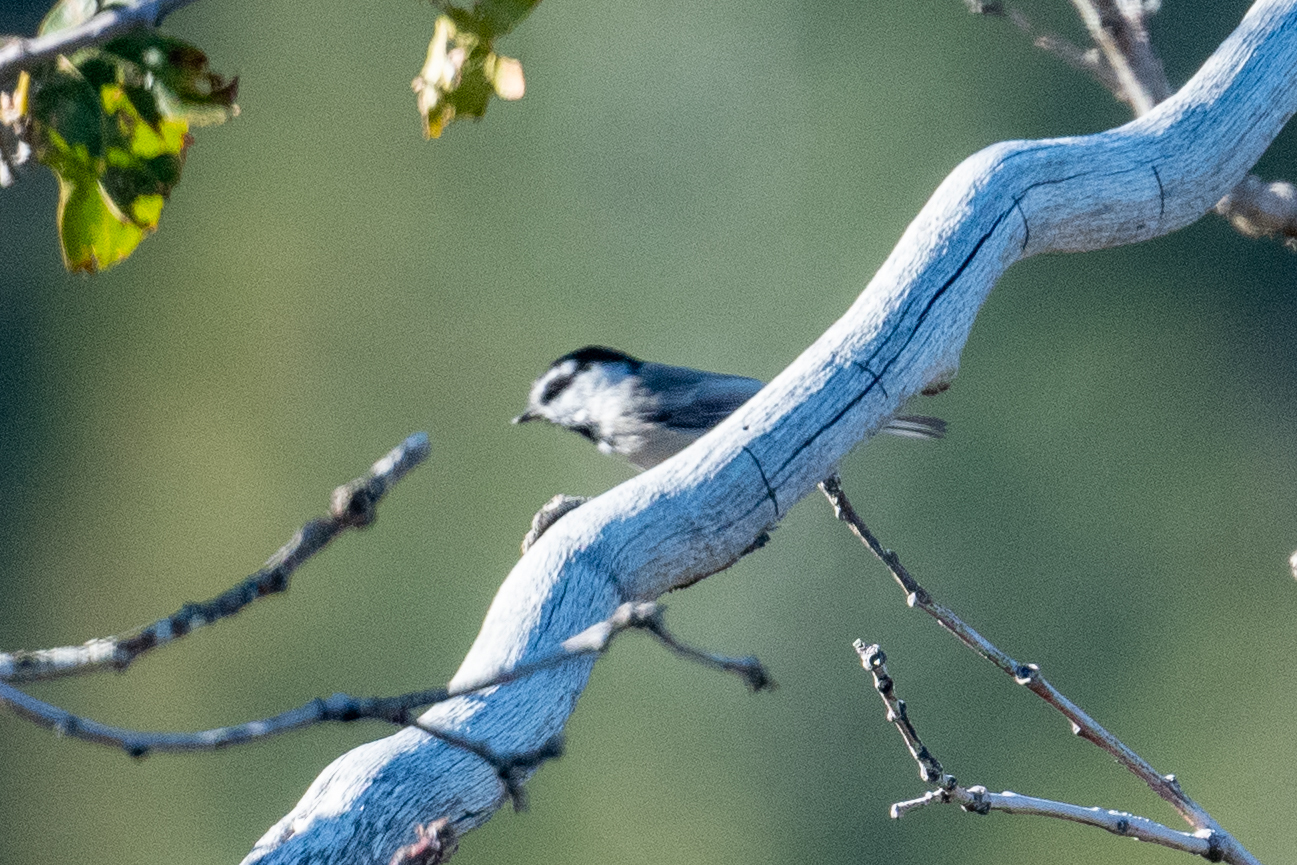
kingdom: Animalia
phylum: Chordata
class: Aves
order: Passeriformes
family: Paridae
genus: Poecile
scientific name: Poecile gambeli
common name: Mountain chickadee
